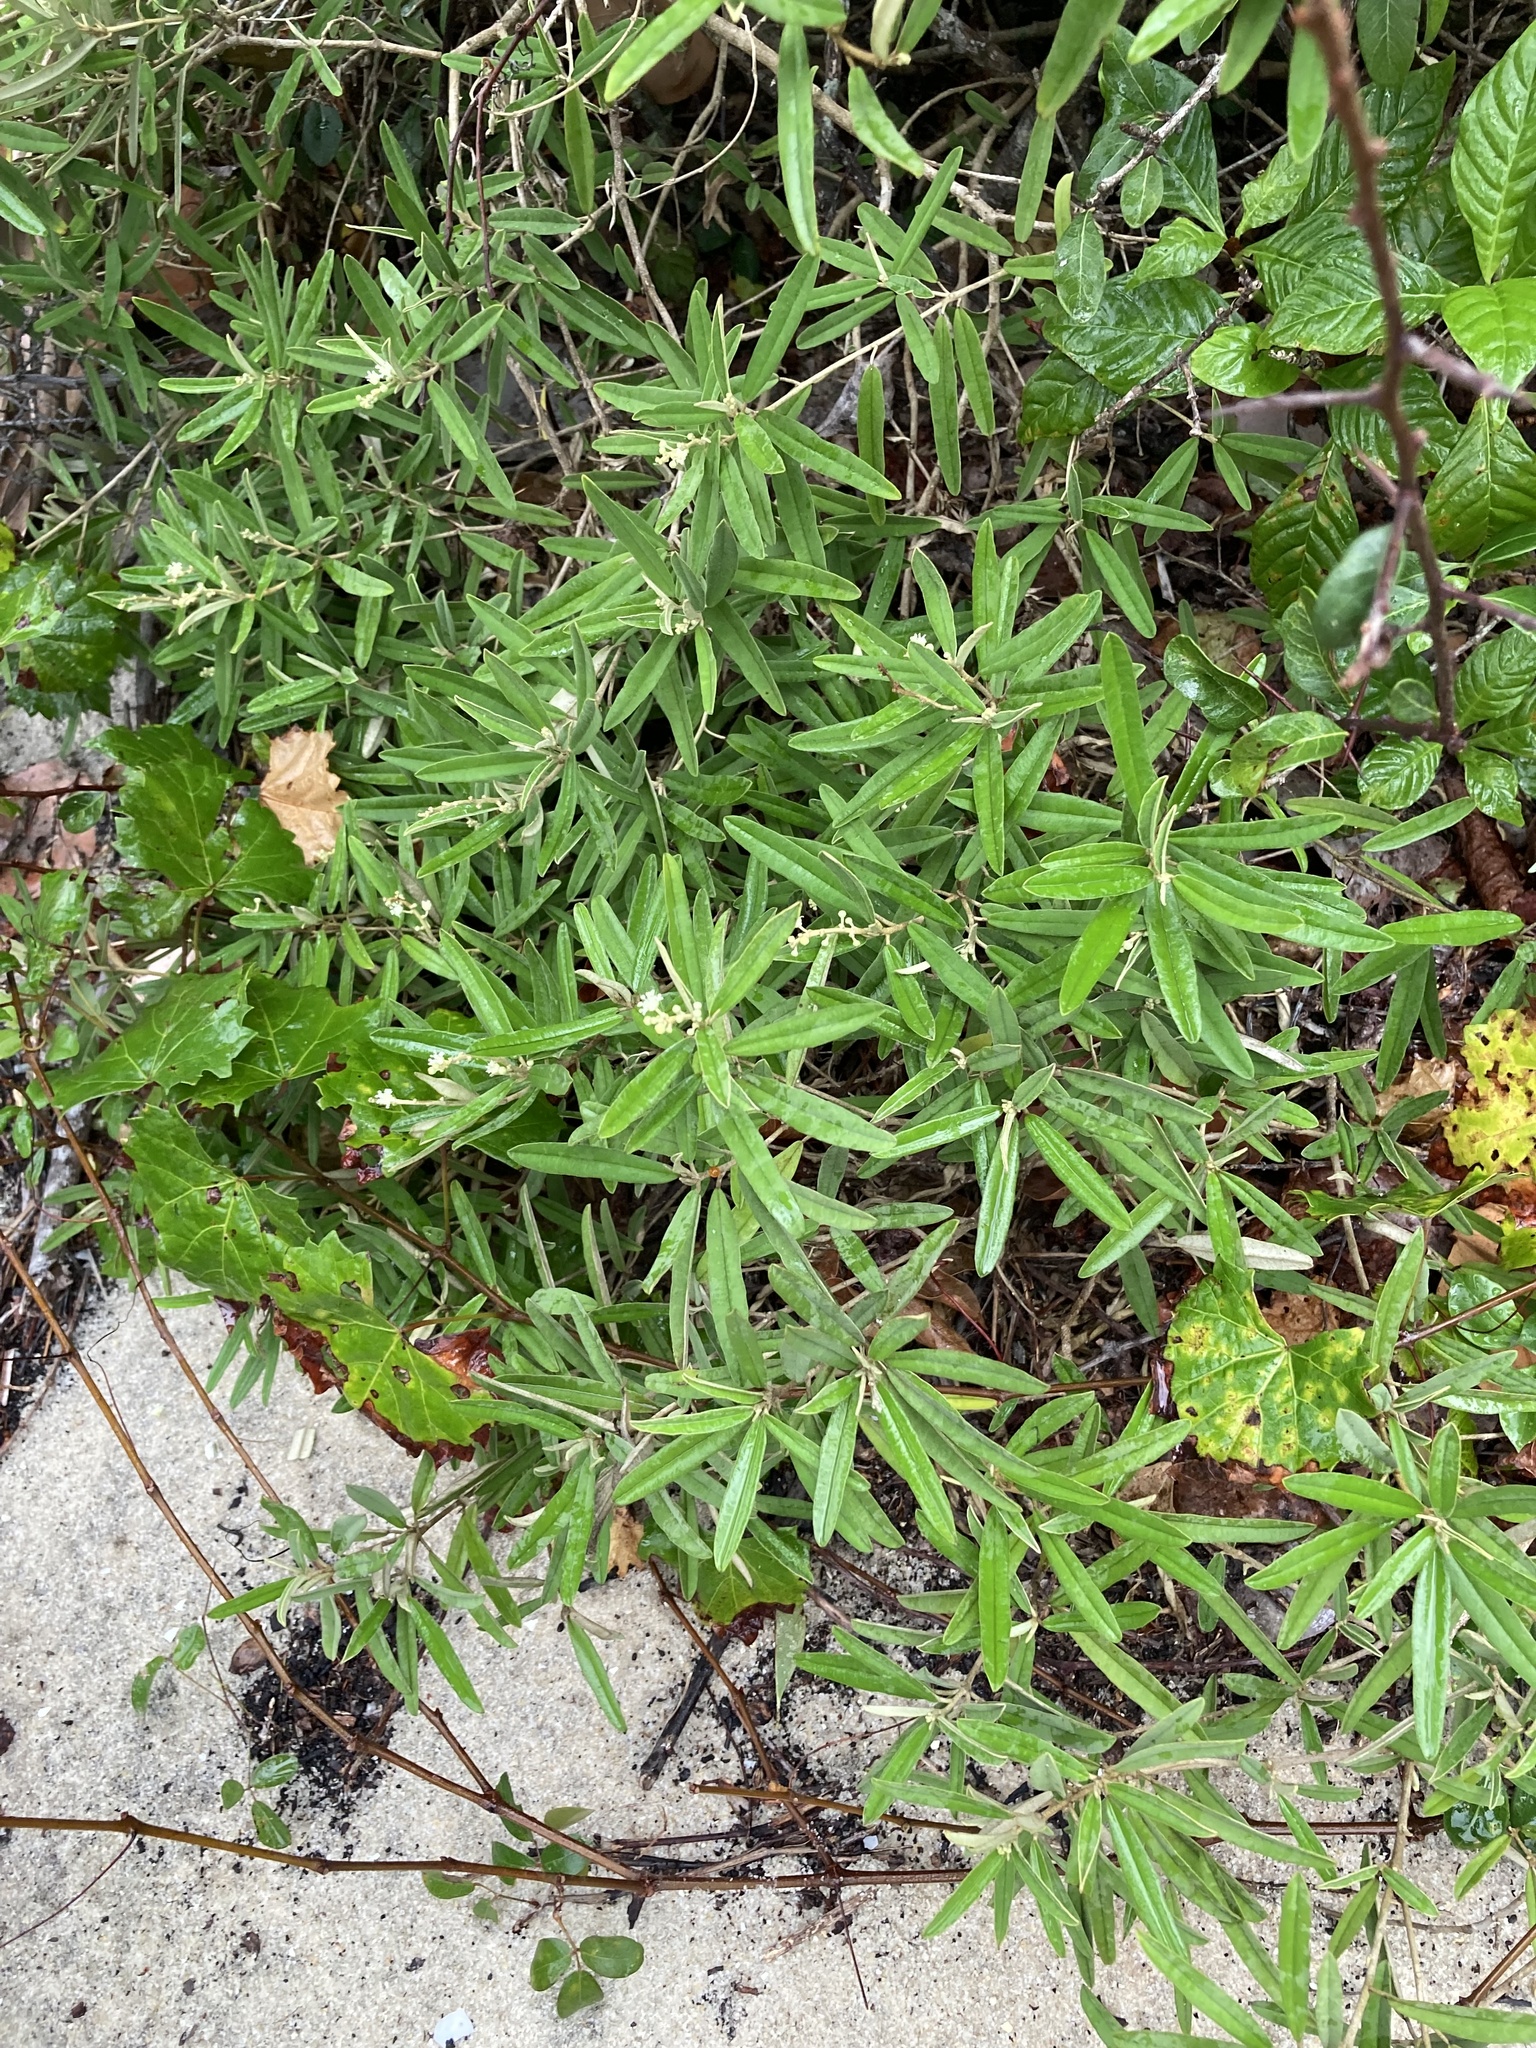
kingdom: Plantae
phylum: Tracheophyta
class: Magnoliopsida
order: Malpighiales
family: Euphorbiaceae
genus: Croton
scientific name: Croton linearis
